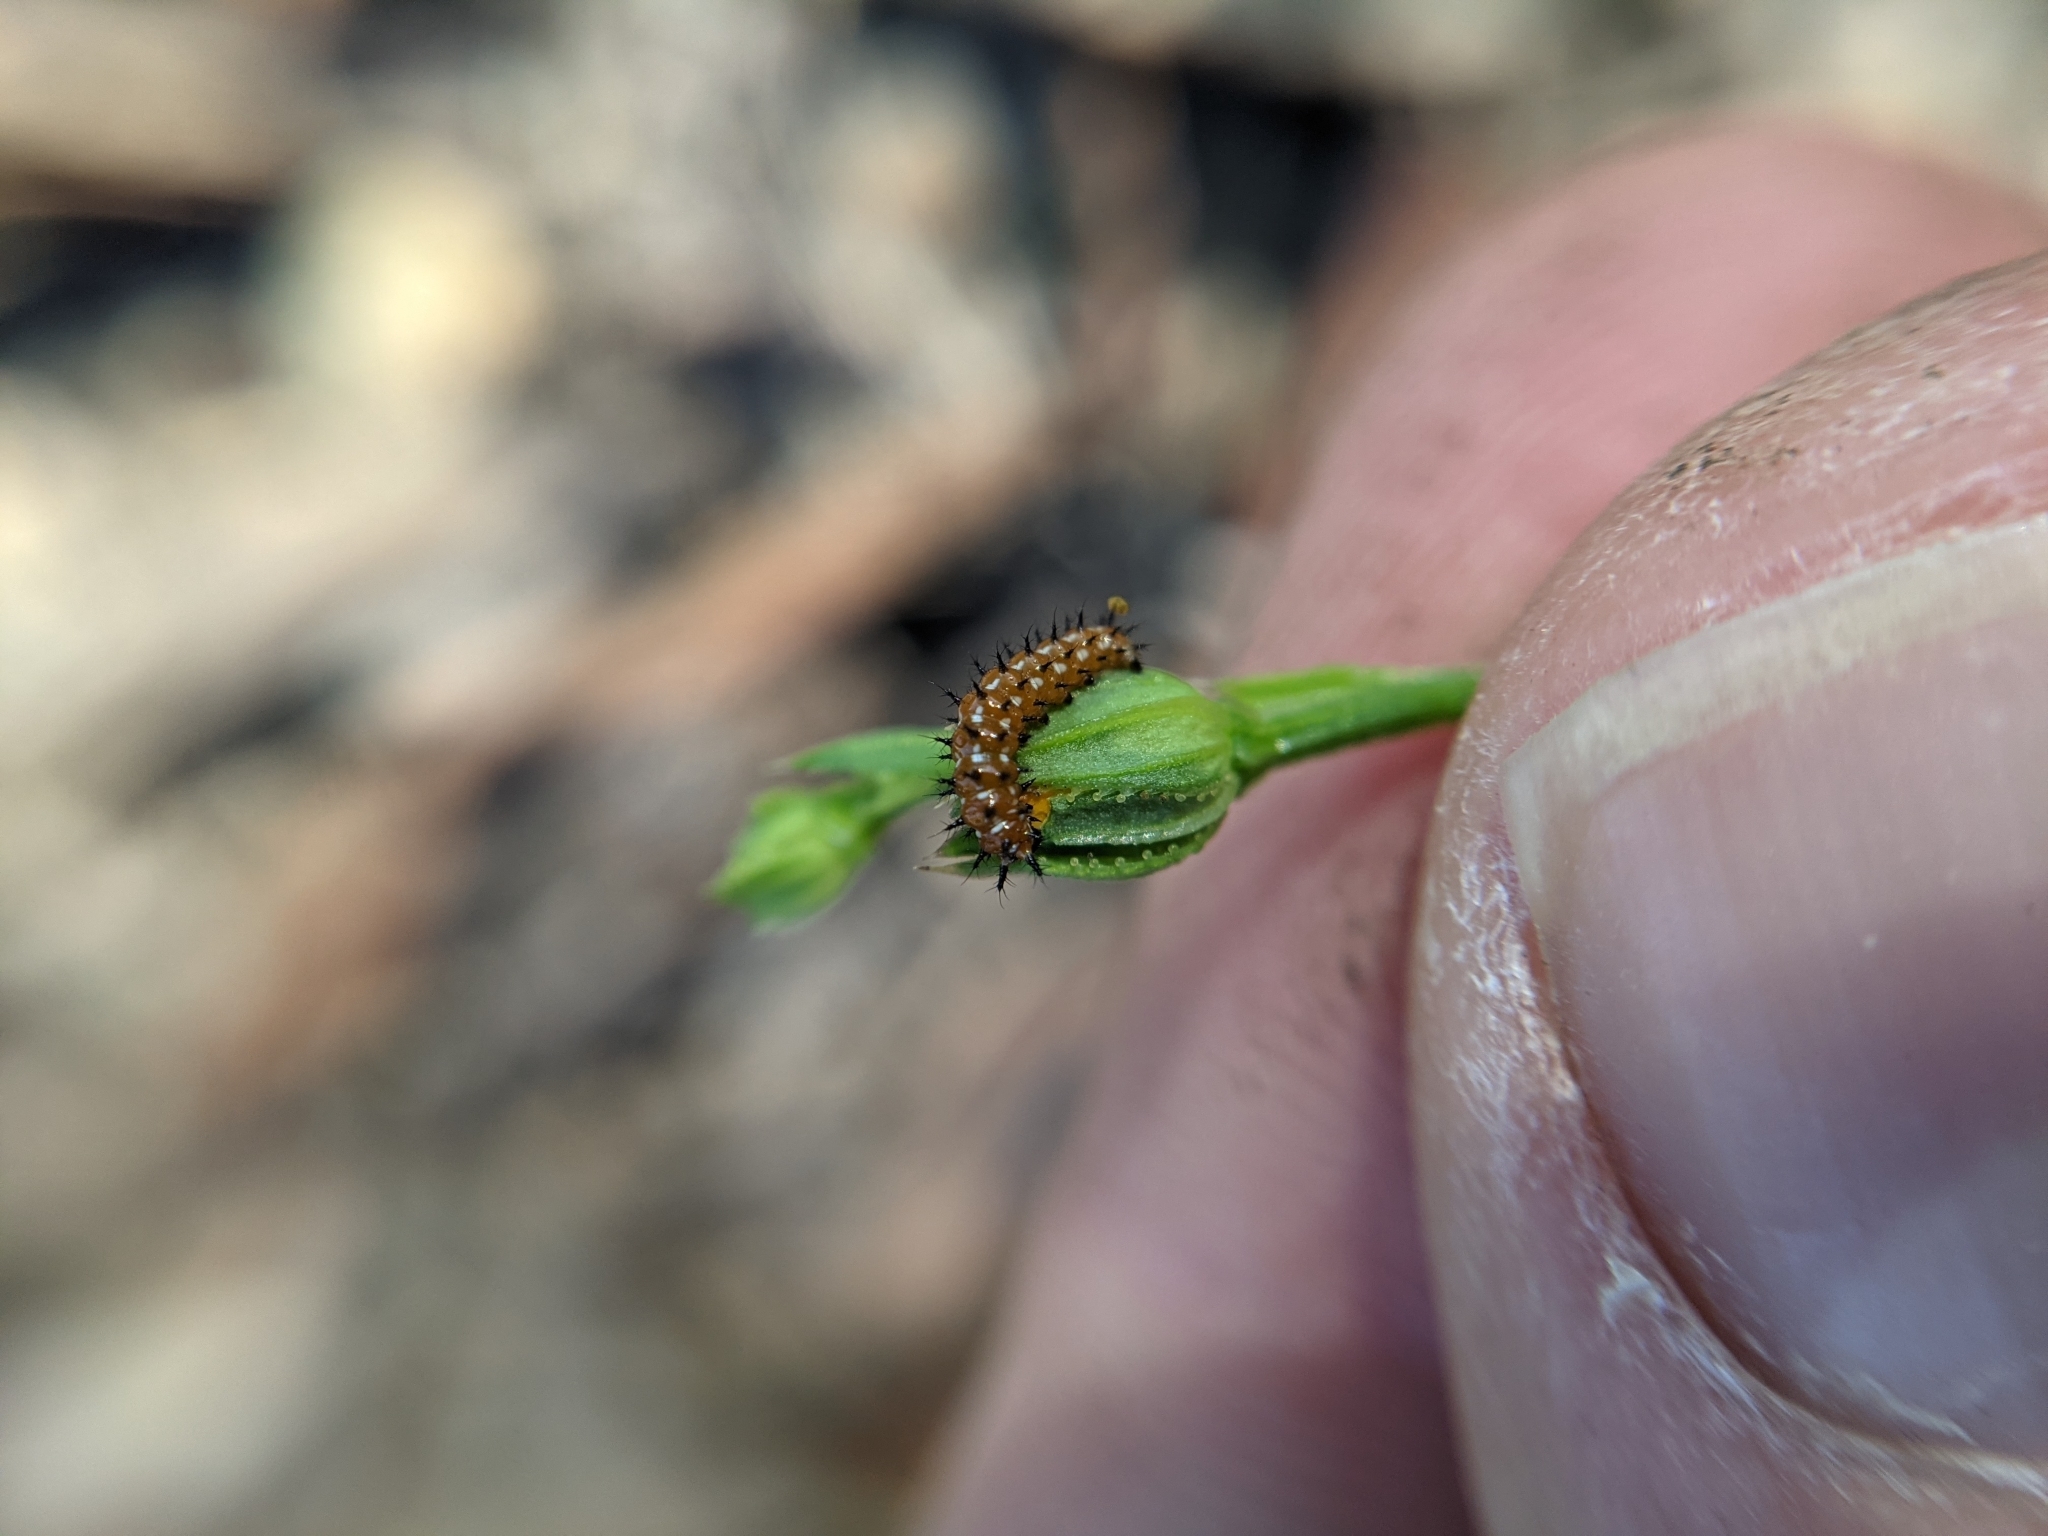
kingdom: Animalia
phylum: Arthropoda
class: Insecta
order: Lepidoptera
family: Nymphalidae
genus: Euptoieta
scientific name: Euptoieta claudia
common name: Variegated fritillary
